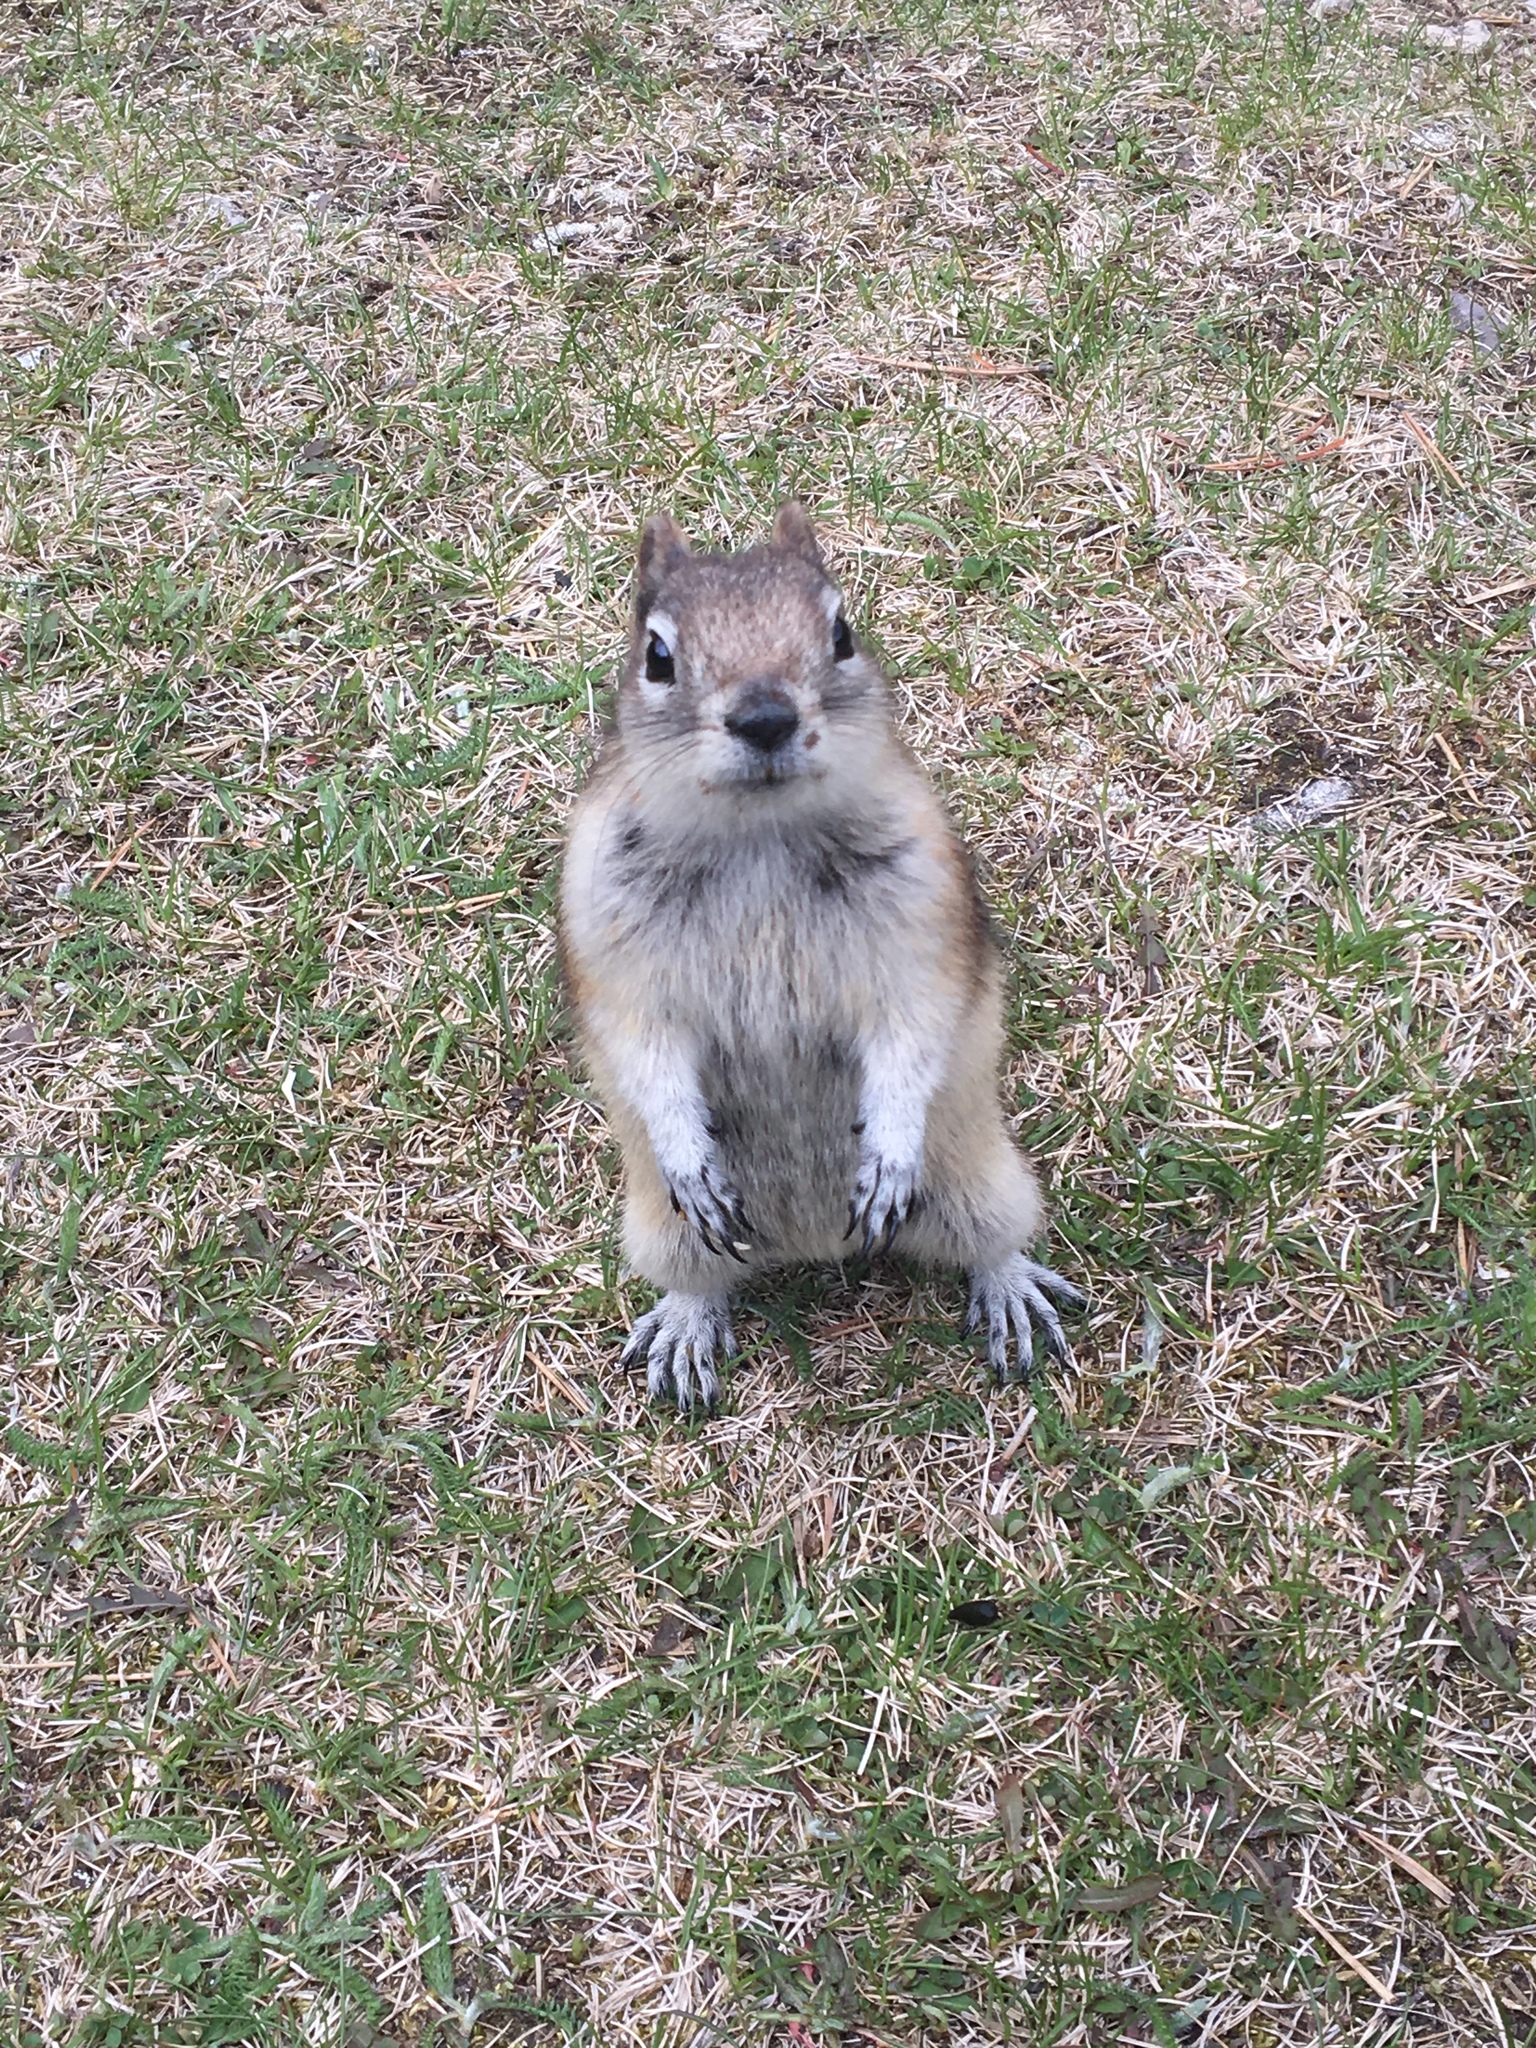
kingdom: Animalia
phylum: Chordata
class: Mammalia
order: Rodentia
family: Sciuridae
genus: Callospermophilus
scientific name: Callospermophilus lateralis
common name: Golden-mantled ground squirrel
